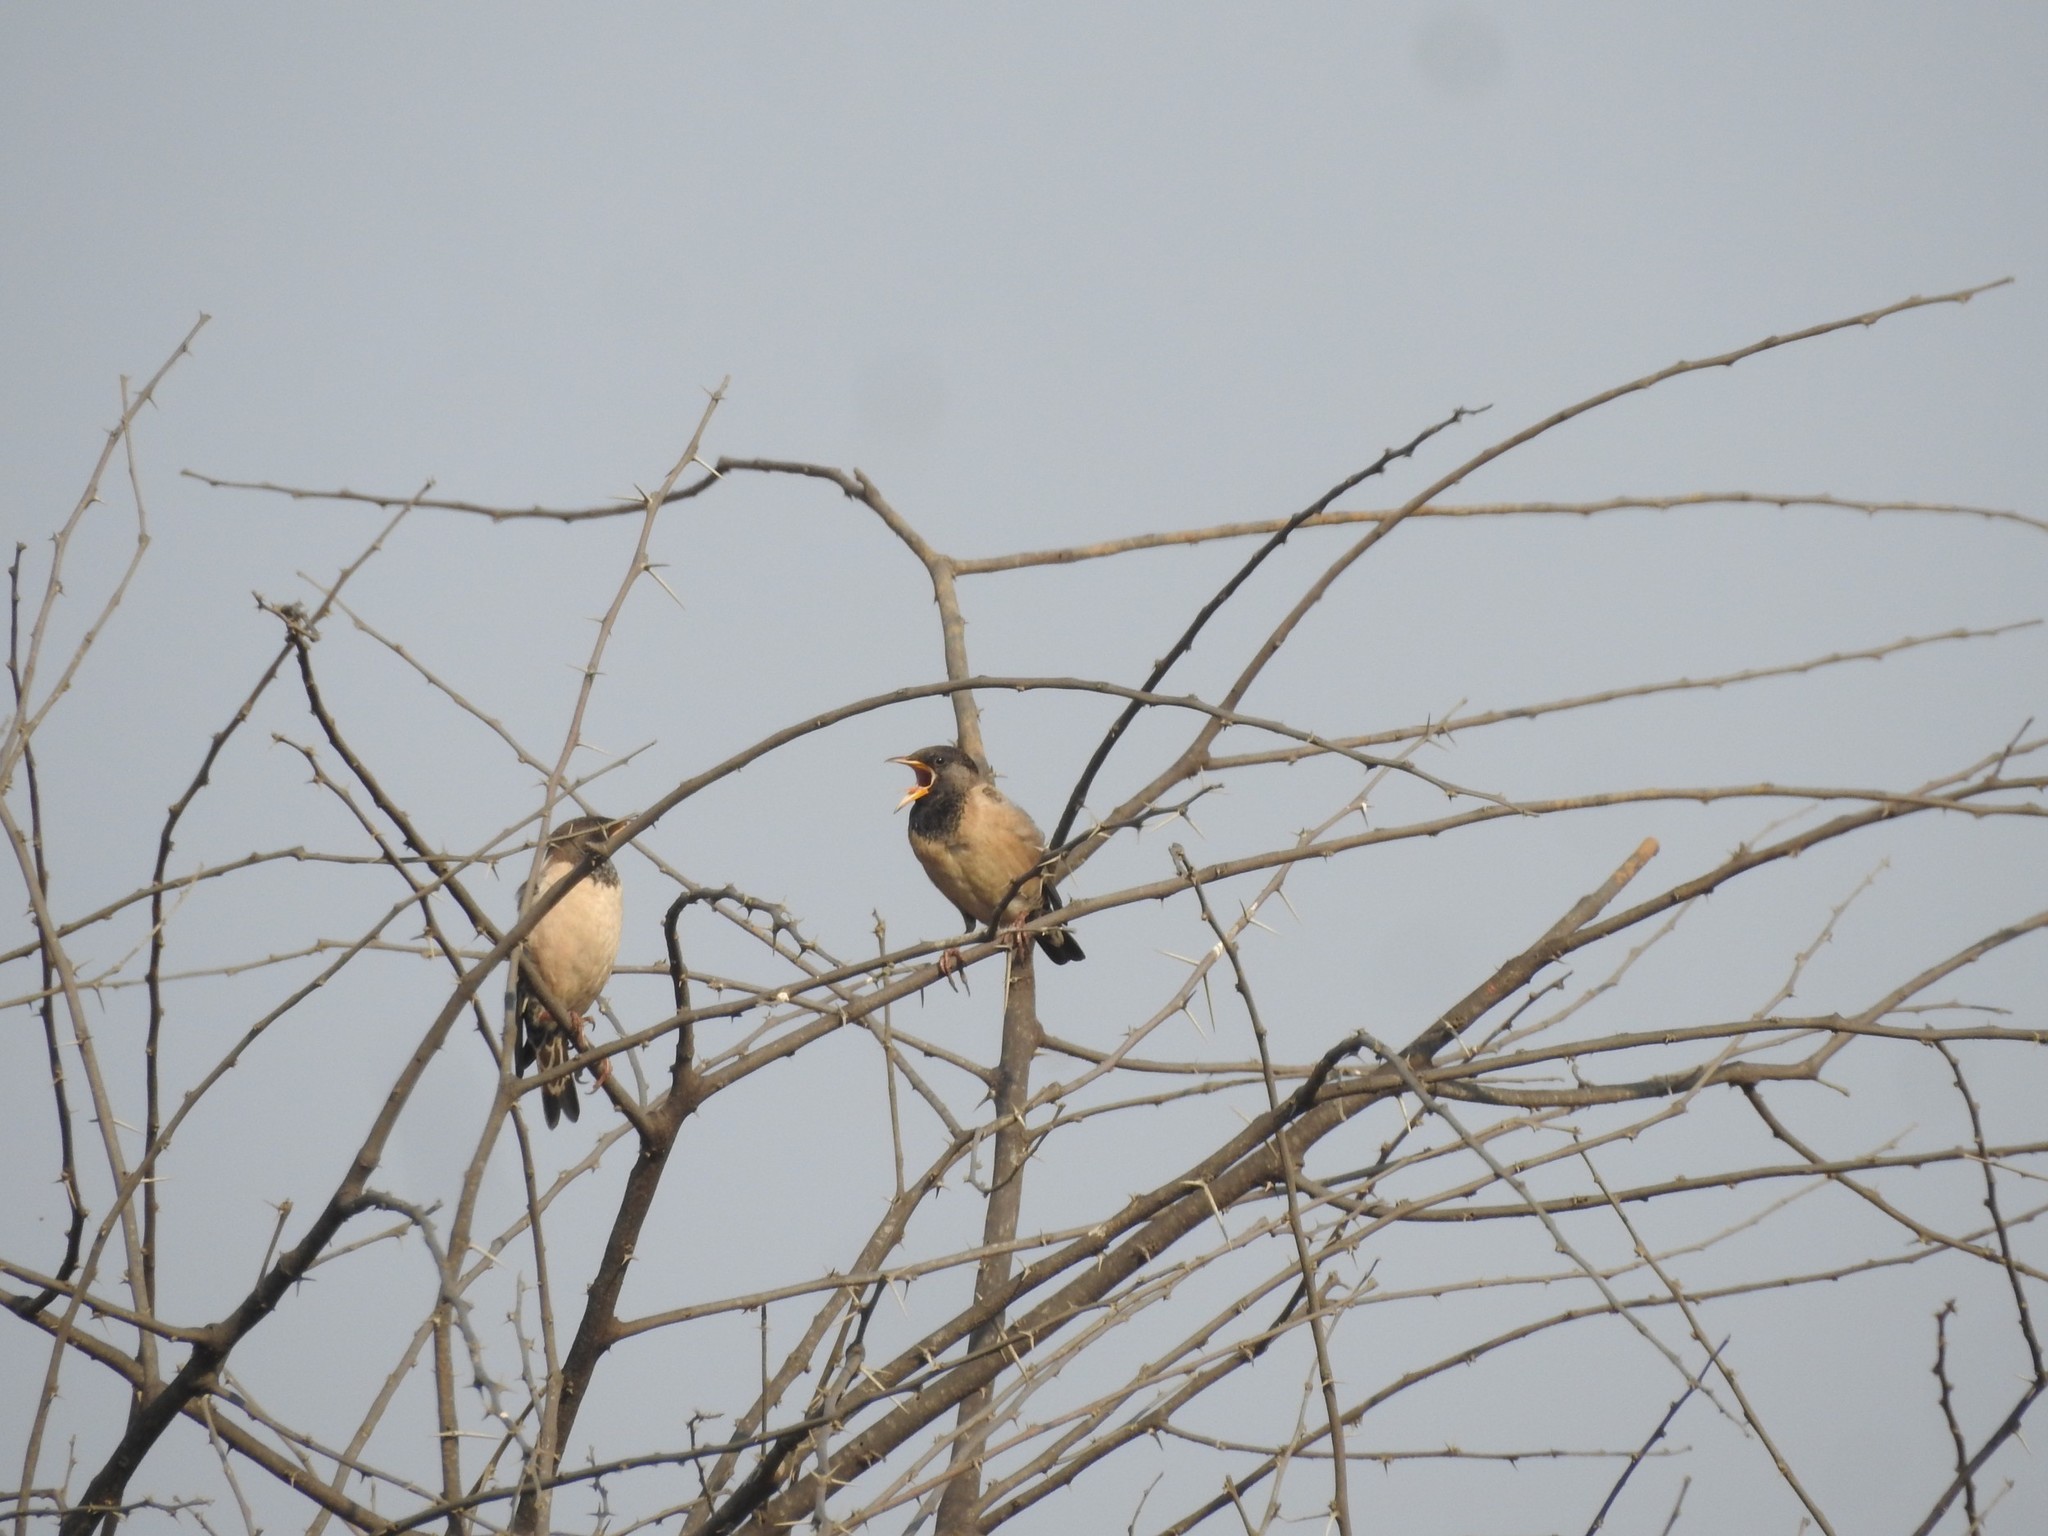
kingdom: Animalia
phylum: Chordata
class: Aves
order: Passeriformes
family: Sturnidae
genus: Pastor
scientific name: Pastor roseus
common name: Rosy starling
